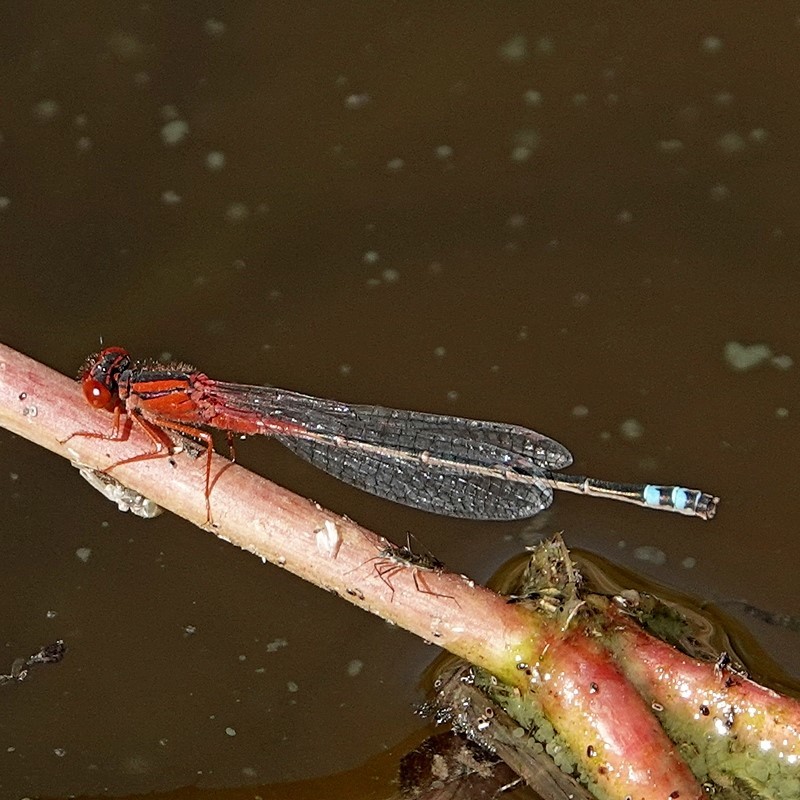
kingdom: Animalia
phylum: Arthropoda
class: Insecta
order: Odonata
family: Coenagrionidae
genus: Xanthagrion
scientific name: Xanthagrion erythroneurum
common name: Red and blue damsel
